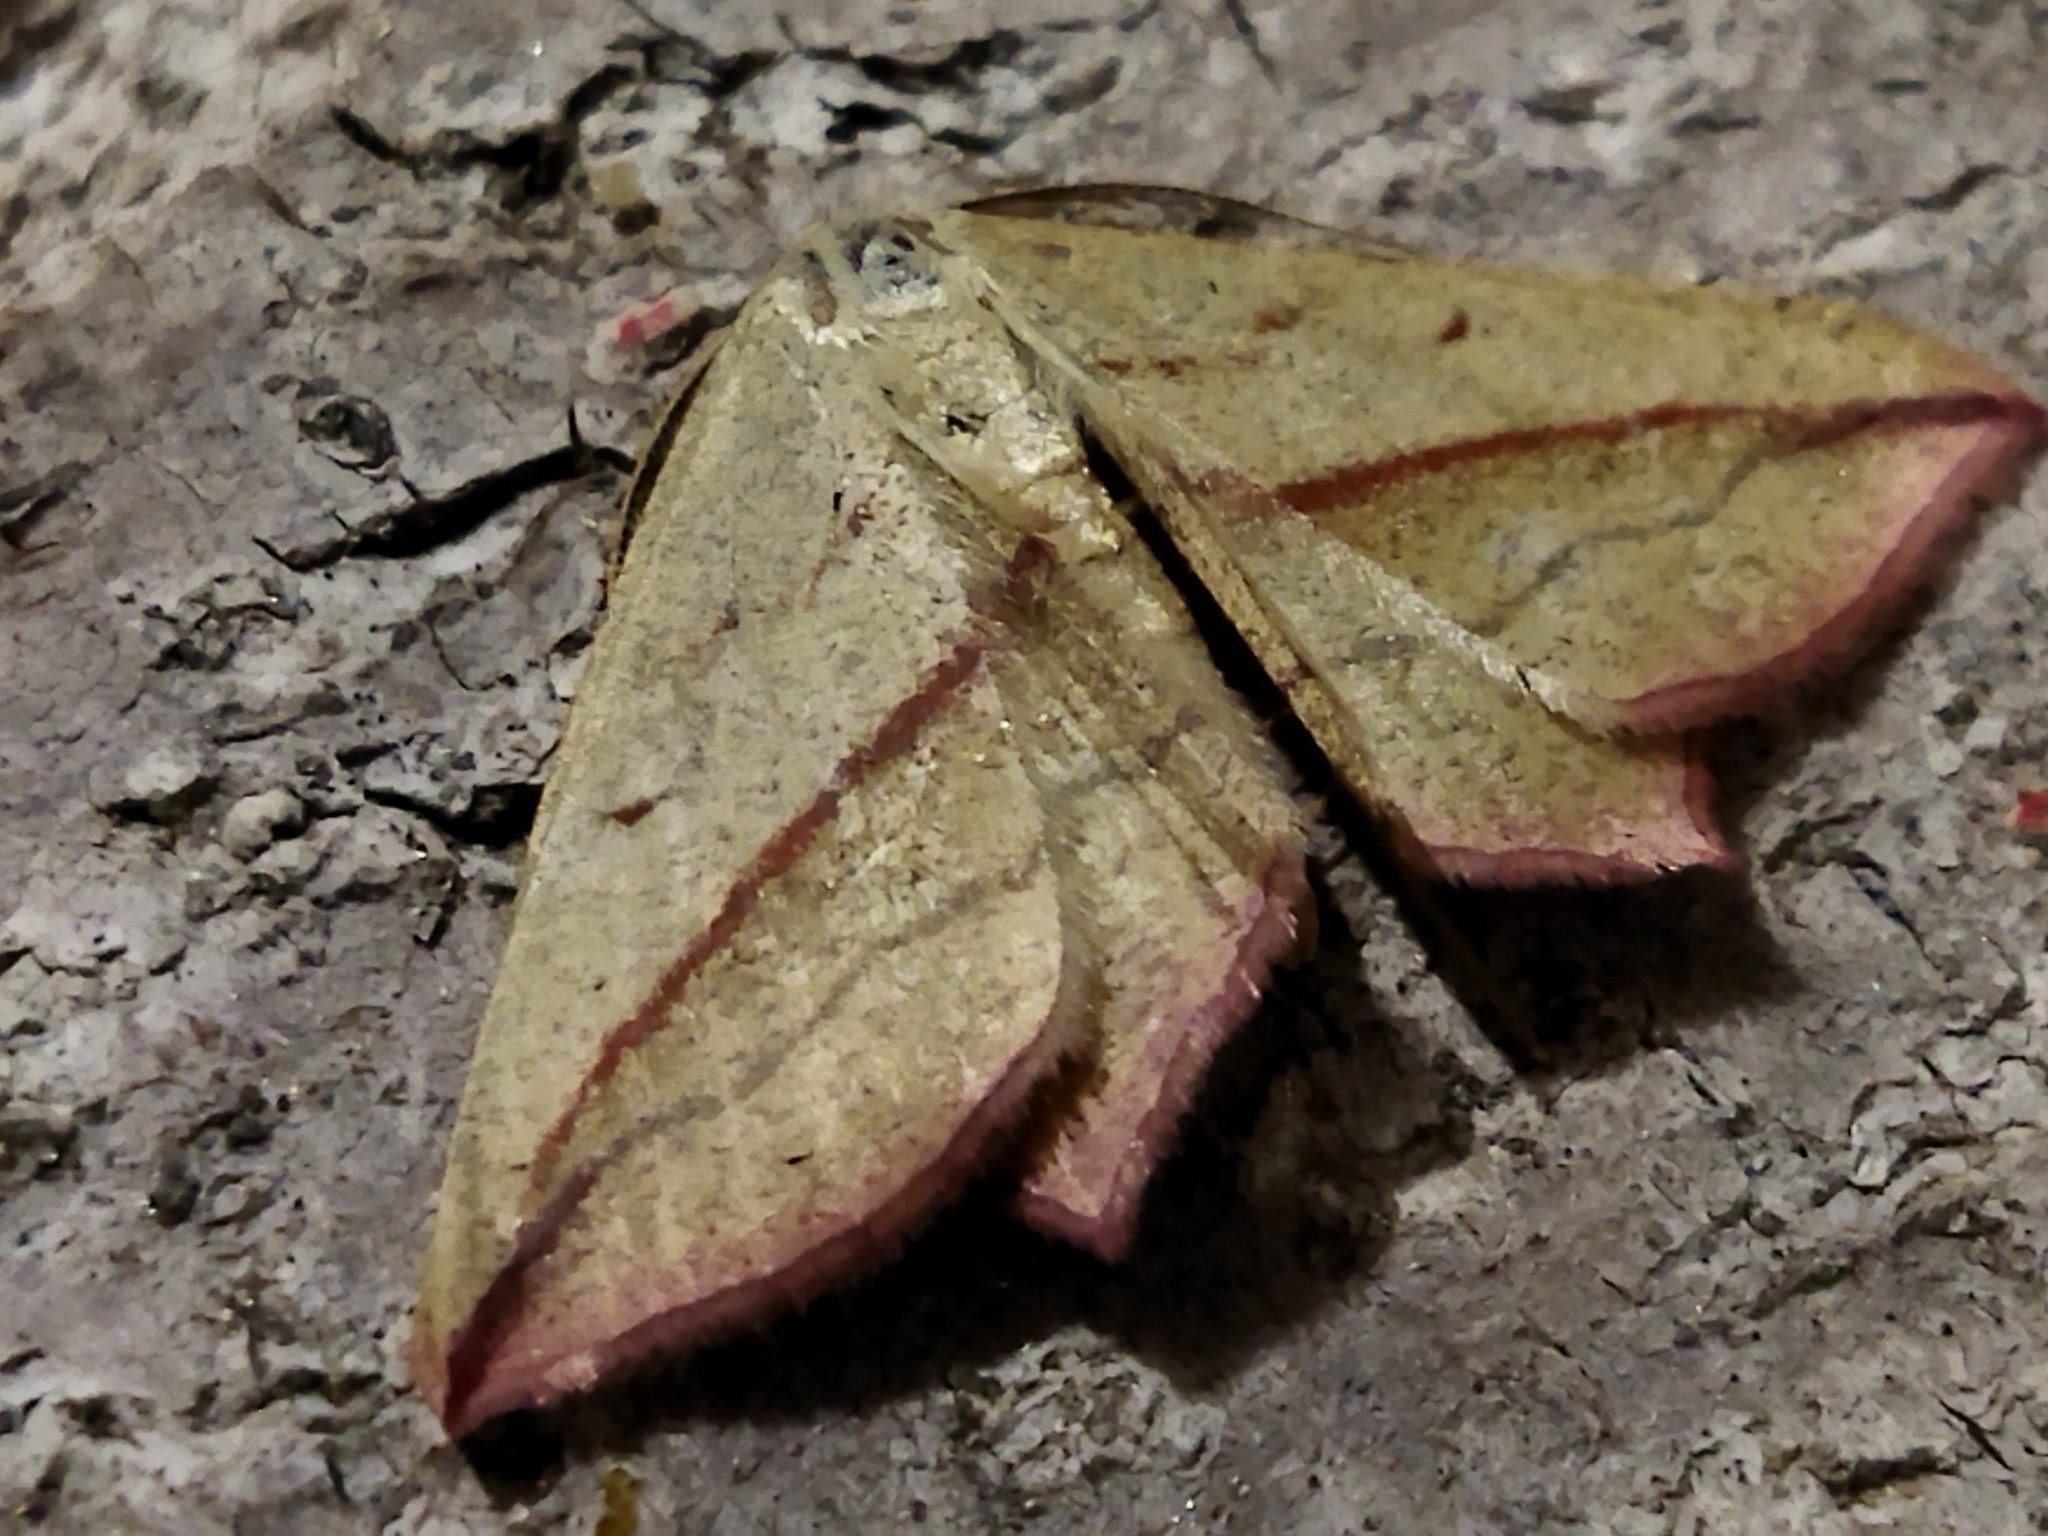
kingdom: Animalia
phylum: Arthropoda
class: Insecta
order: Lepidoptera
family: Geometridae
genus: Timandra
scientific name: Timandra comae
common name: Blood-vein
